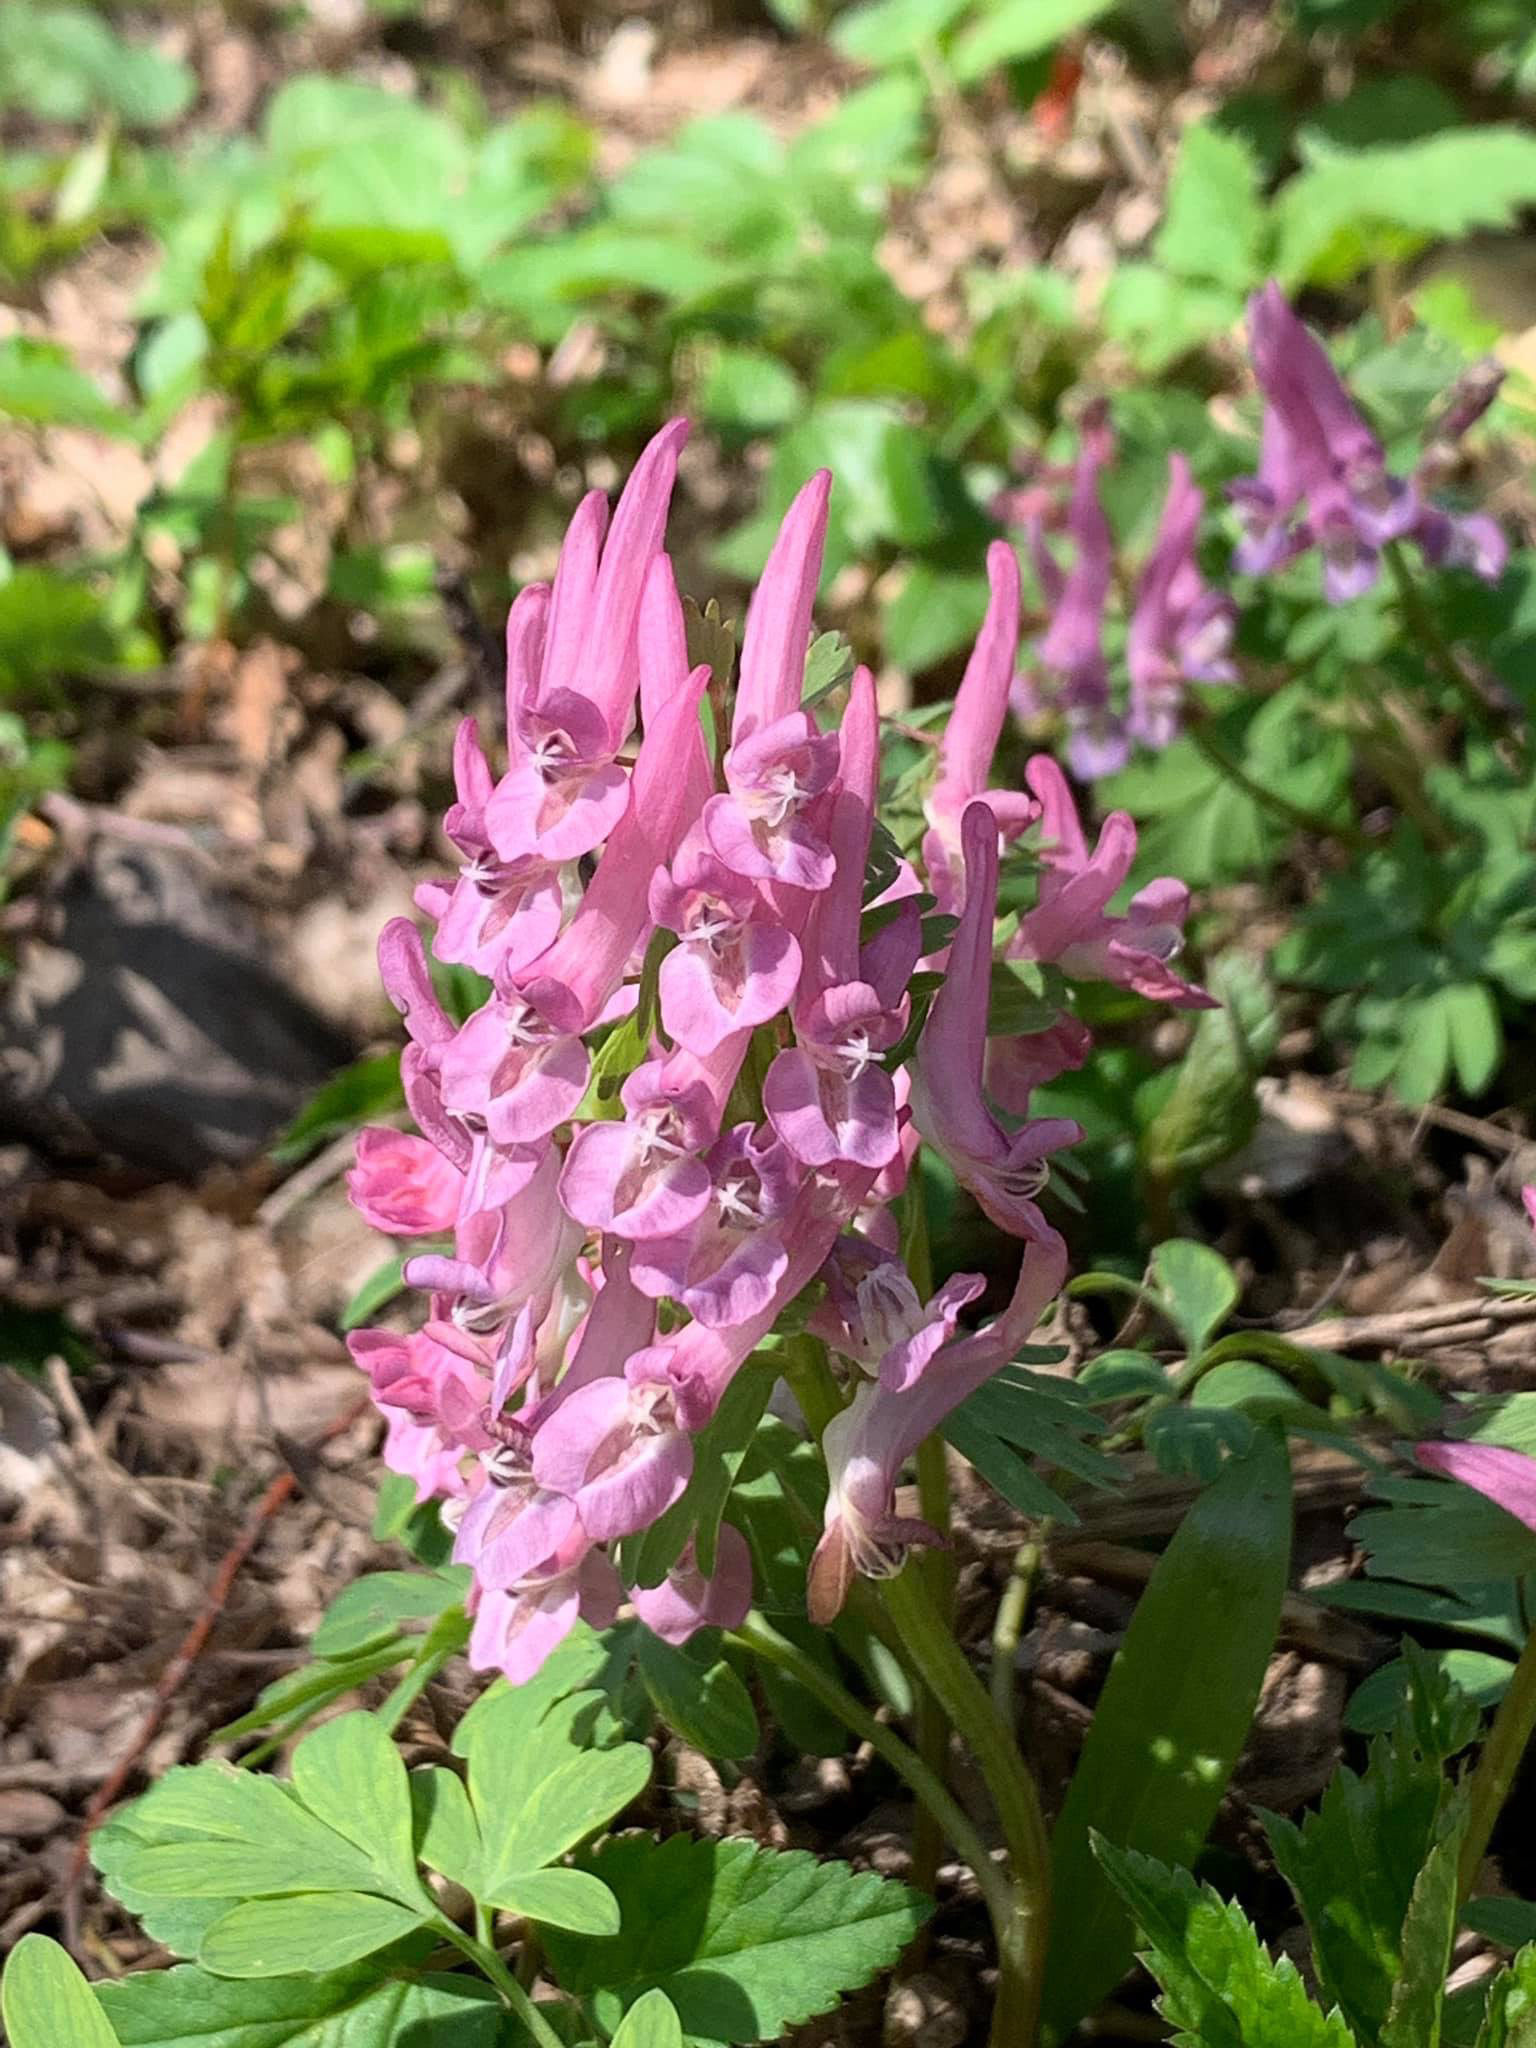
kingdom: Plantae
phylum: Tracheophyta
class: Magnoliopsida
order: Ranunculales
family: Papaveraceae
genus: Corydalis
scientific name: Corydalis solida
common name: Bird-in-a-bush
